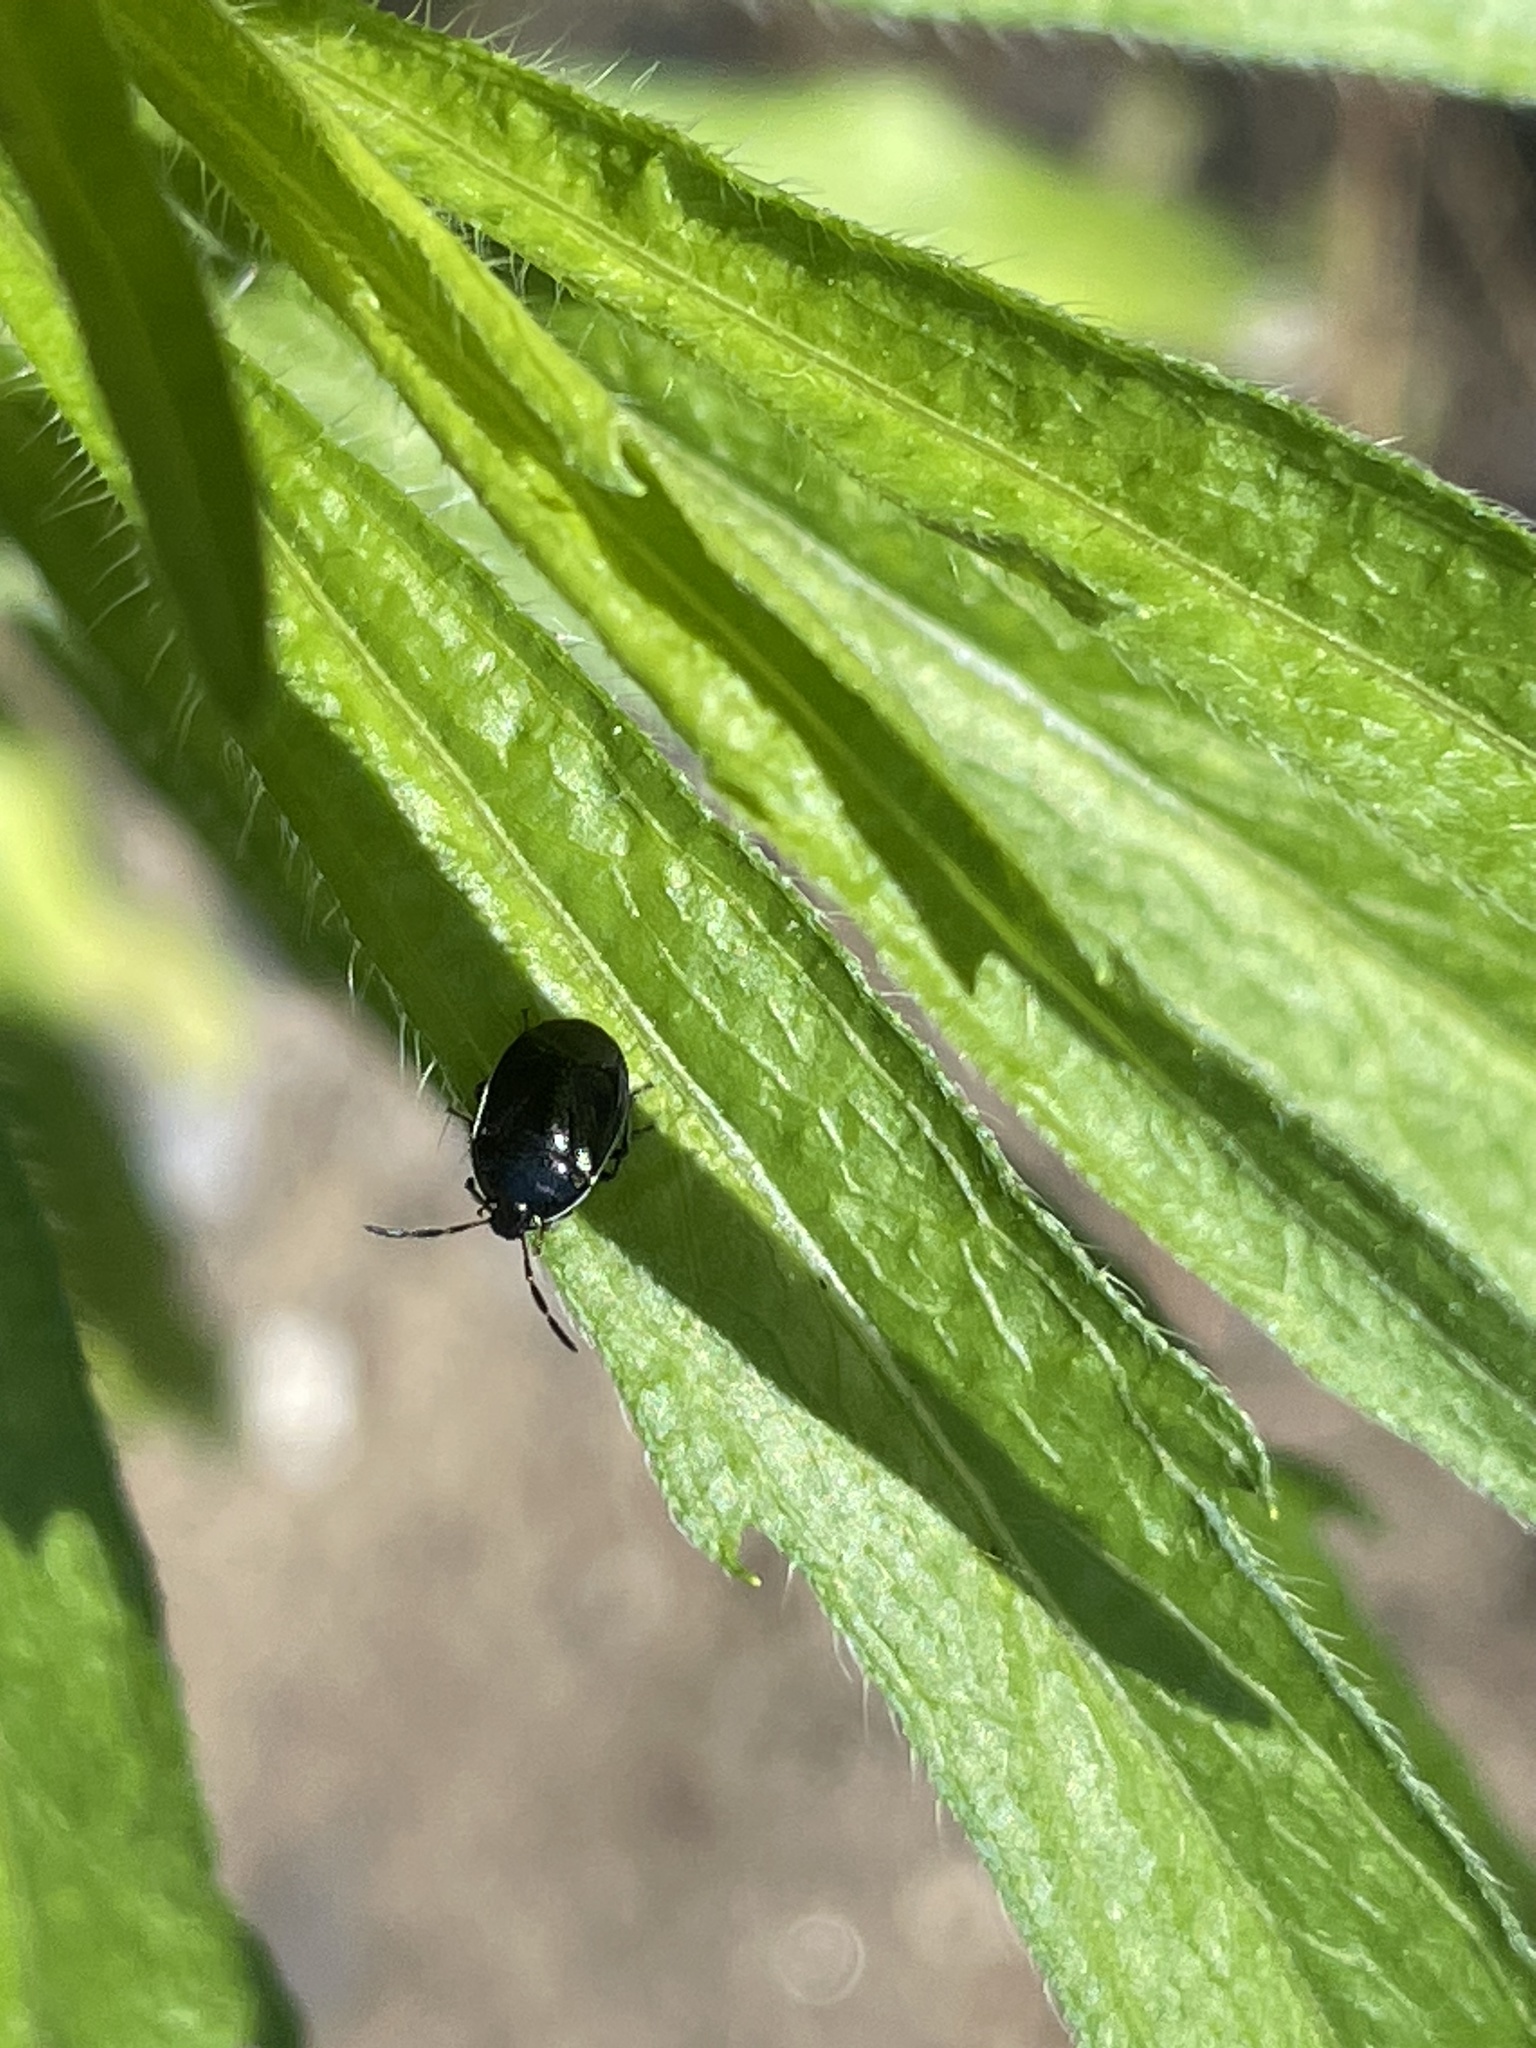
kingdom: Animalia
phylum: Arthropoda
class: Insecta
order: Hemiptera
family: Cydnidae
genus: Sehirus
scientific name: Sehirus cinctus
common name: White-margined burrower bug
